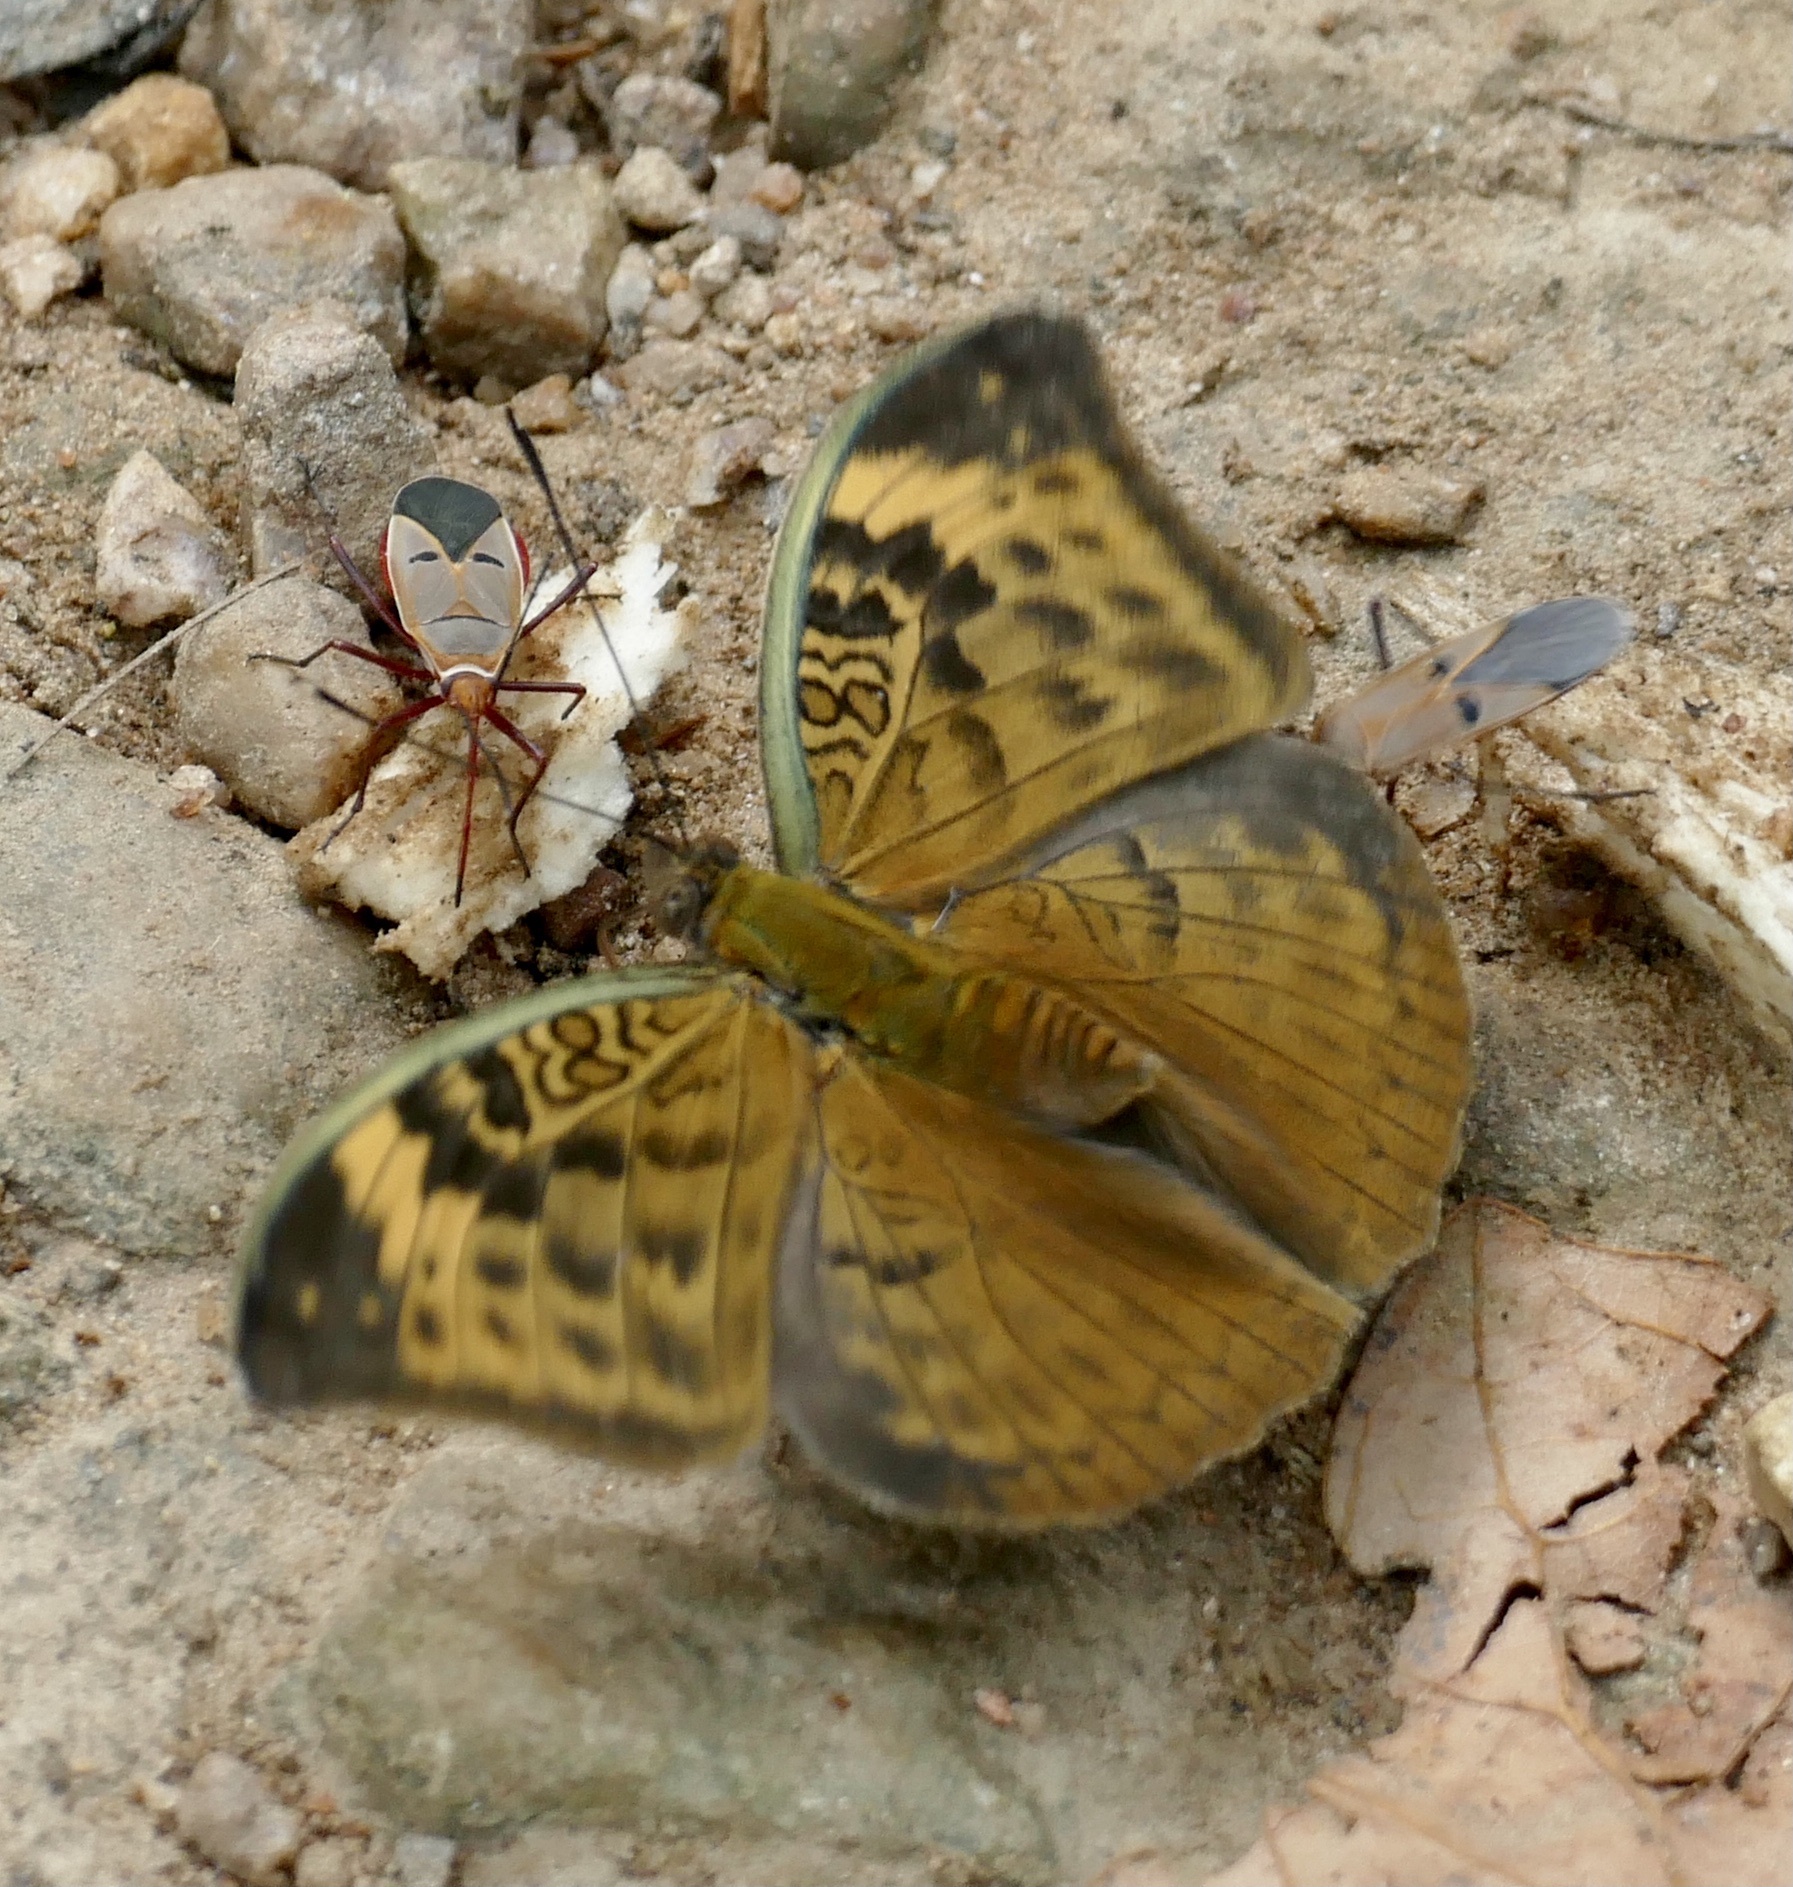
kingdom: Animalia
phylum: Arthropoda
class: Insecta
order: Lepidoptera
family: Nymphalidae
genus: Bebearia
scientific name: Bebearia sophus
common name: Sophus forester
